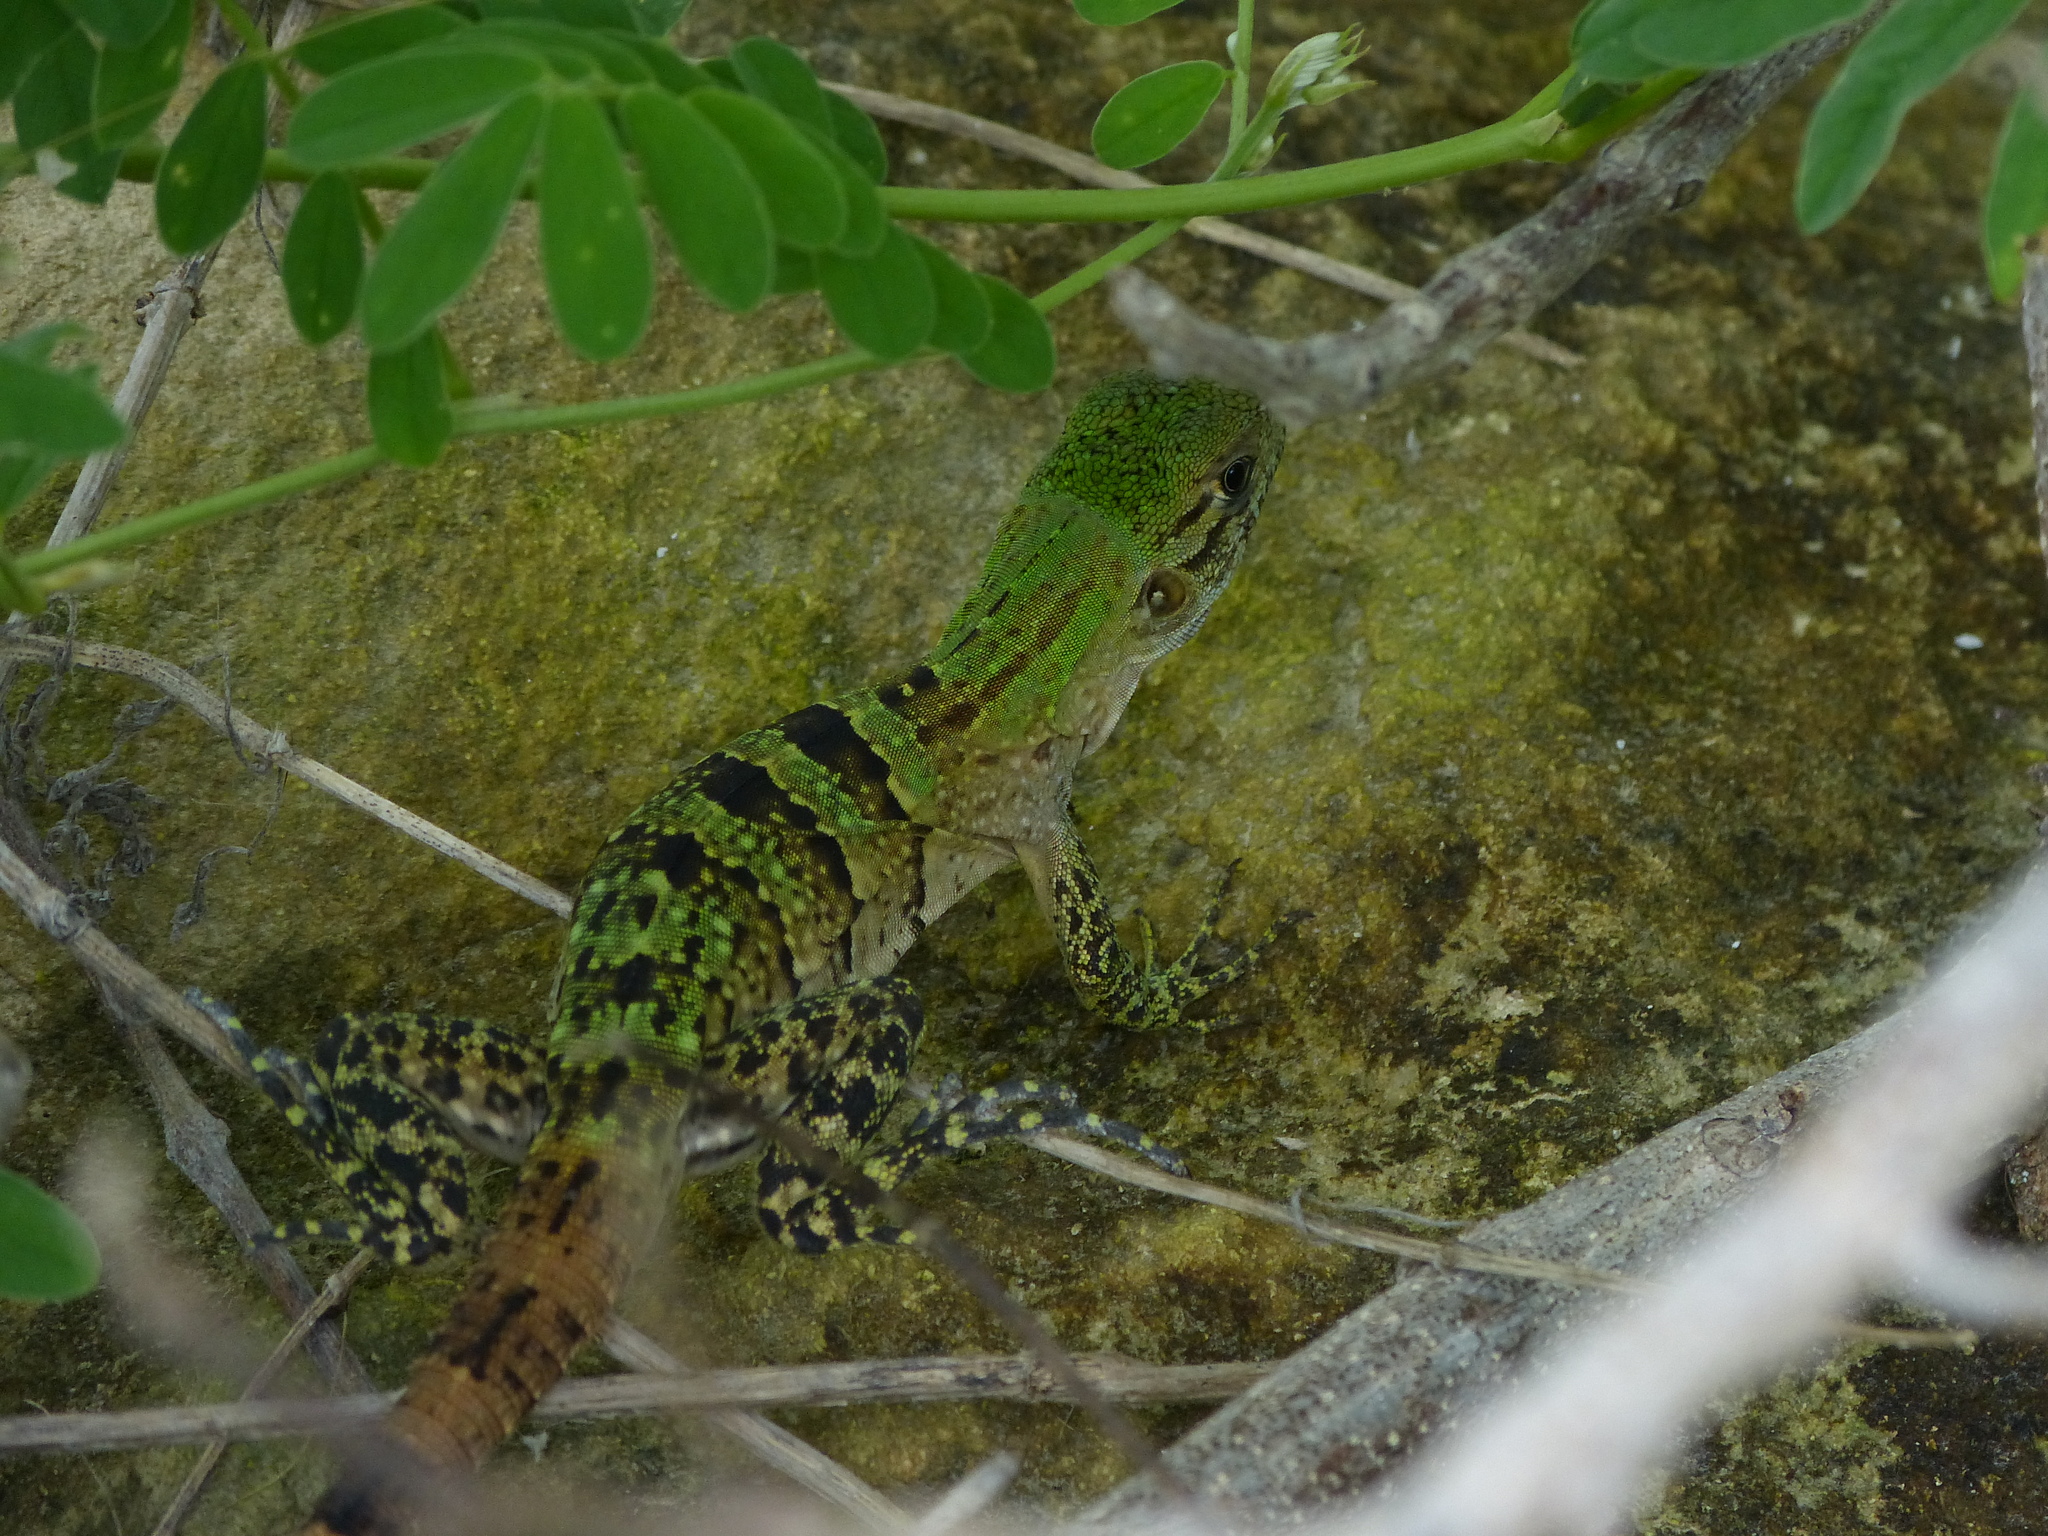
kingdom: Animalia
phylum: Chordata
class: Squamata
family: Iguanidae
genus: Ctenosaura
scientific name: Ctenosaura similis
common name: Black spiny-tailed iguana
